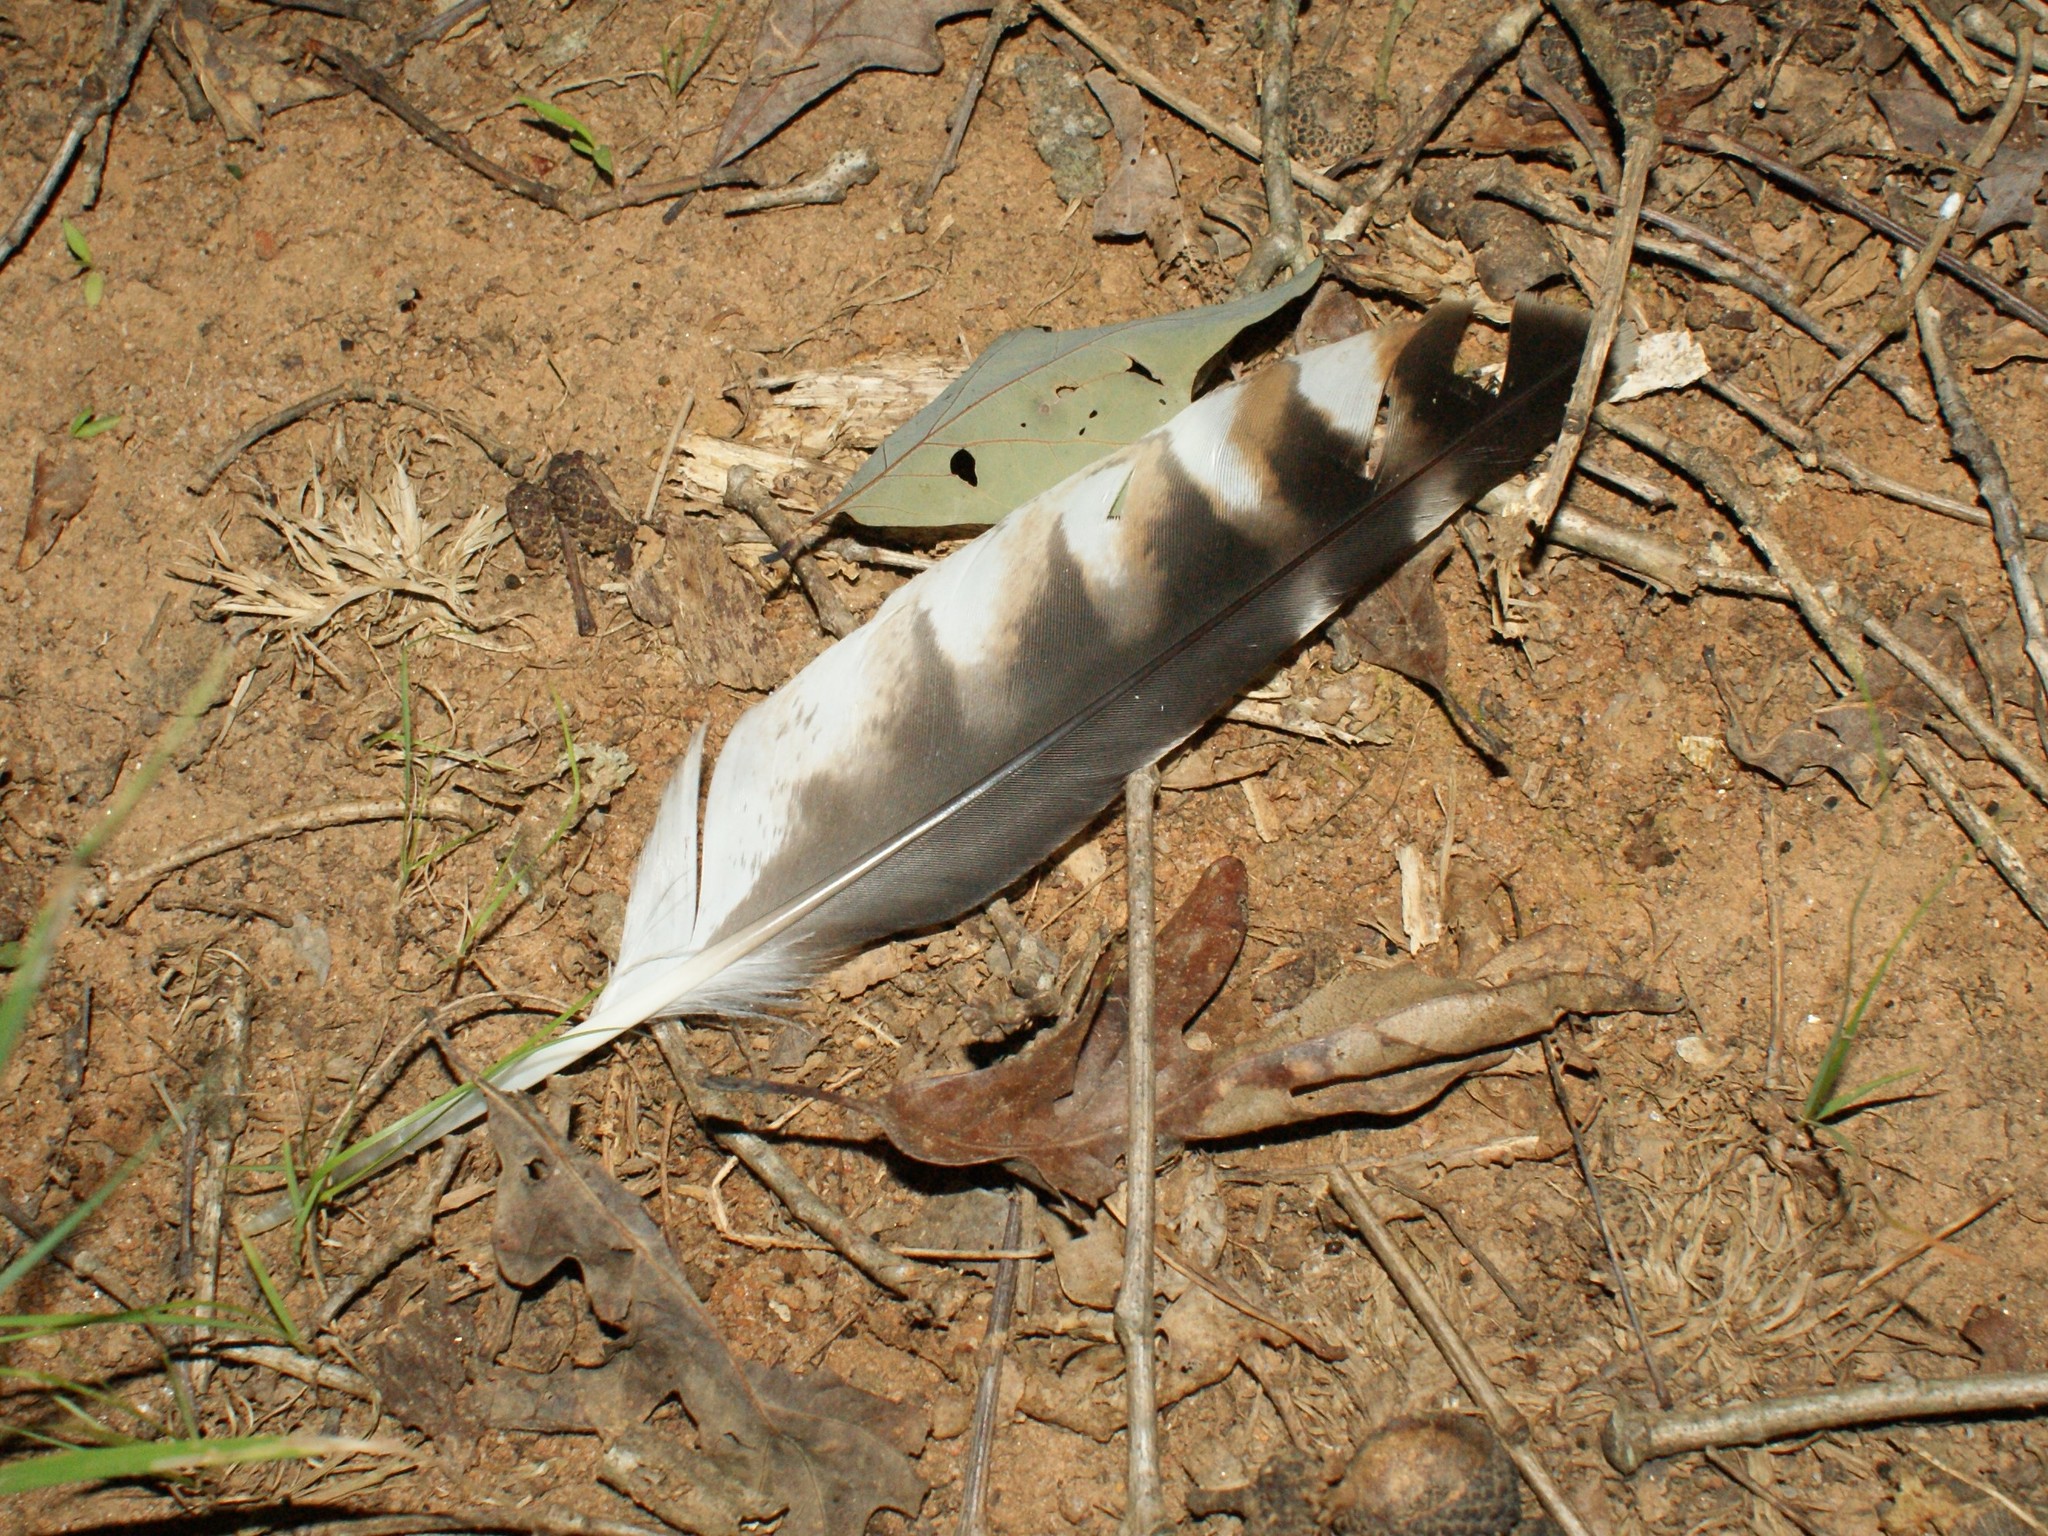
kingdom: Animalia
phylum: Chordata
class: Aves
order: Accipitriformes
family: Accipitridae
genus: Buteo
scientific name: Buteo lineatus
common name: Red-shouldered hawk
